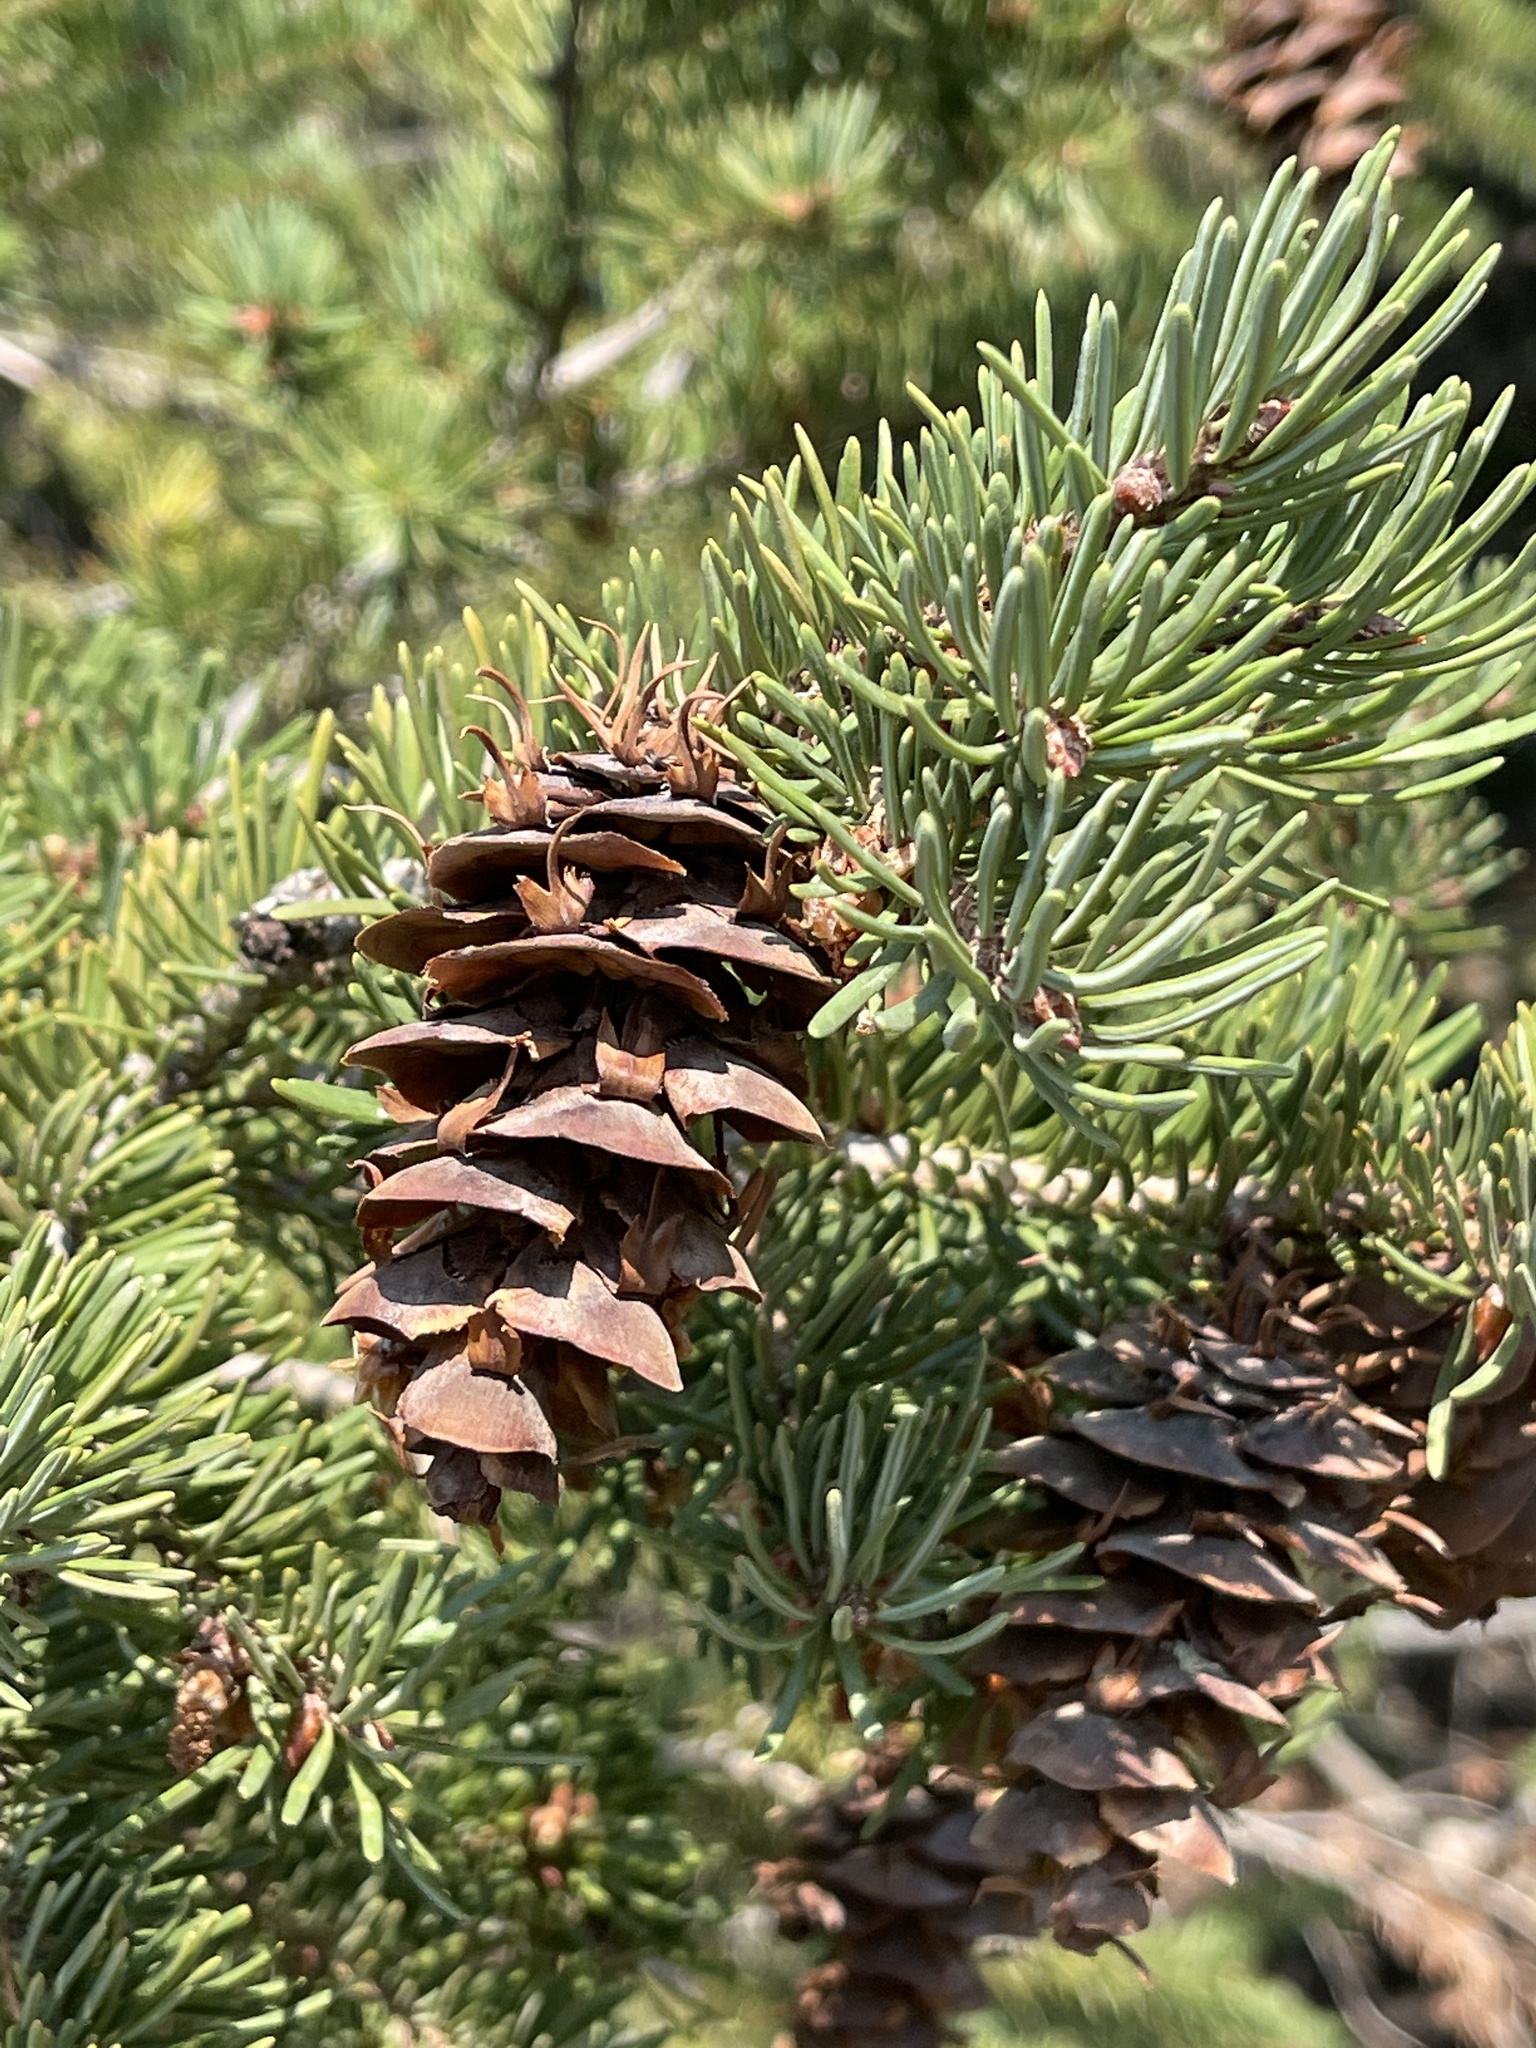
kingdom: Plantae
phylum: Tracheophyta
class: Pinopsida
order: Pinales
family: Pinaceae
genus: Pseudotsuga
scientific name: Pseudotsuga menziesii
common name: Douglas fir
